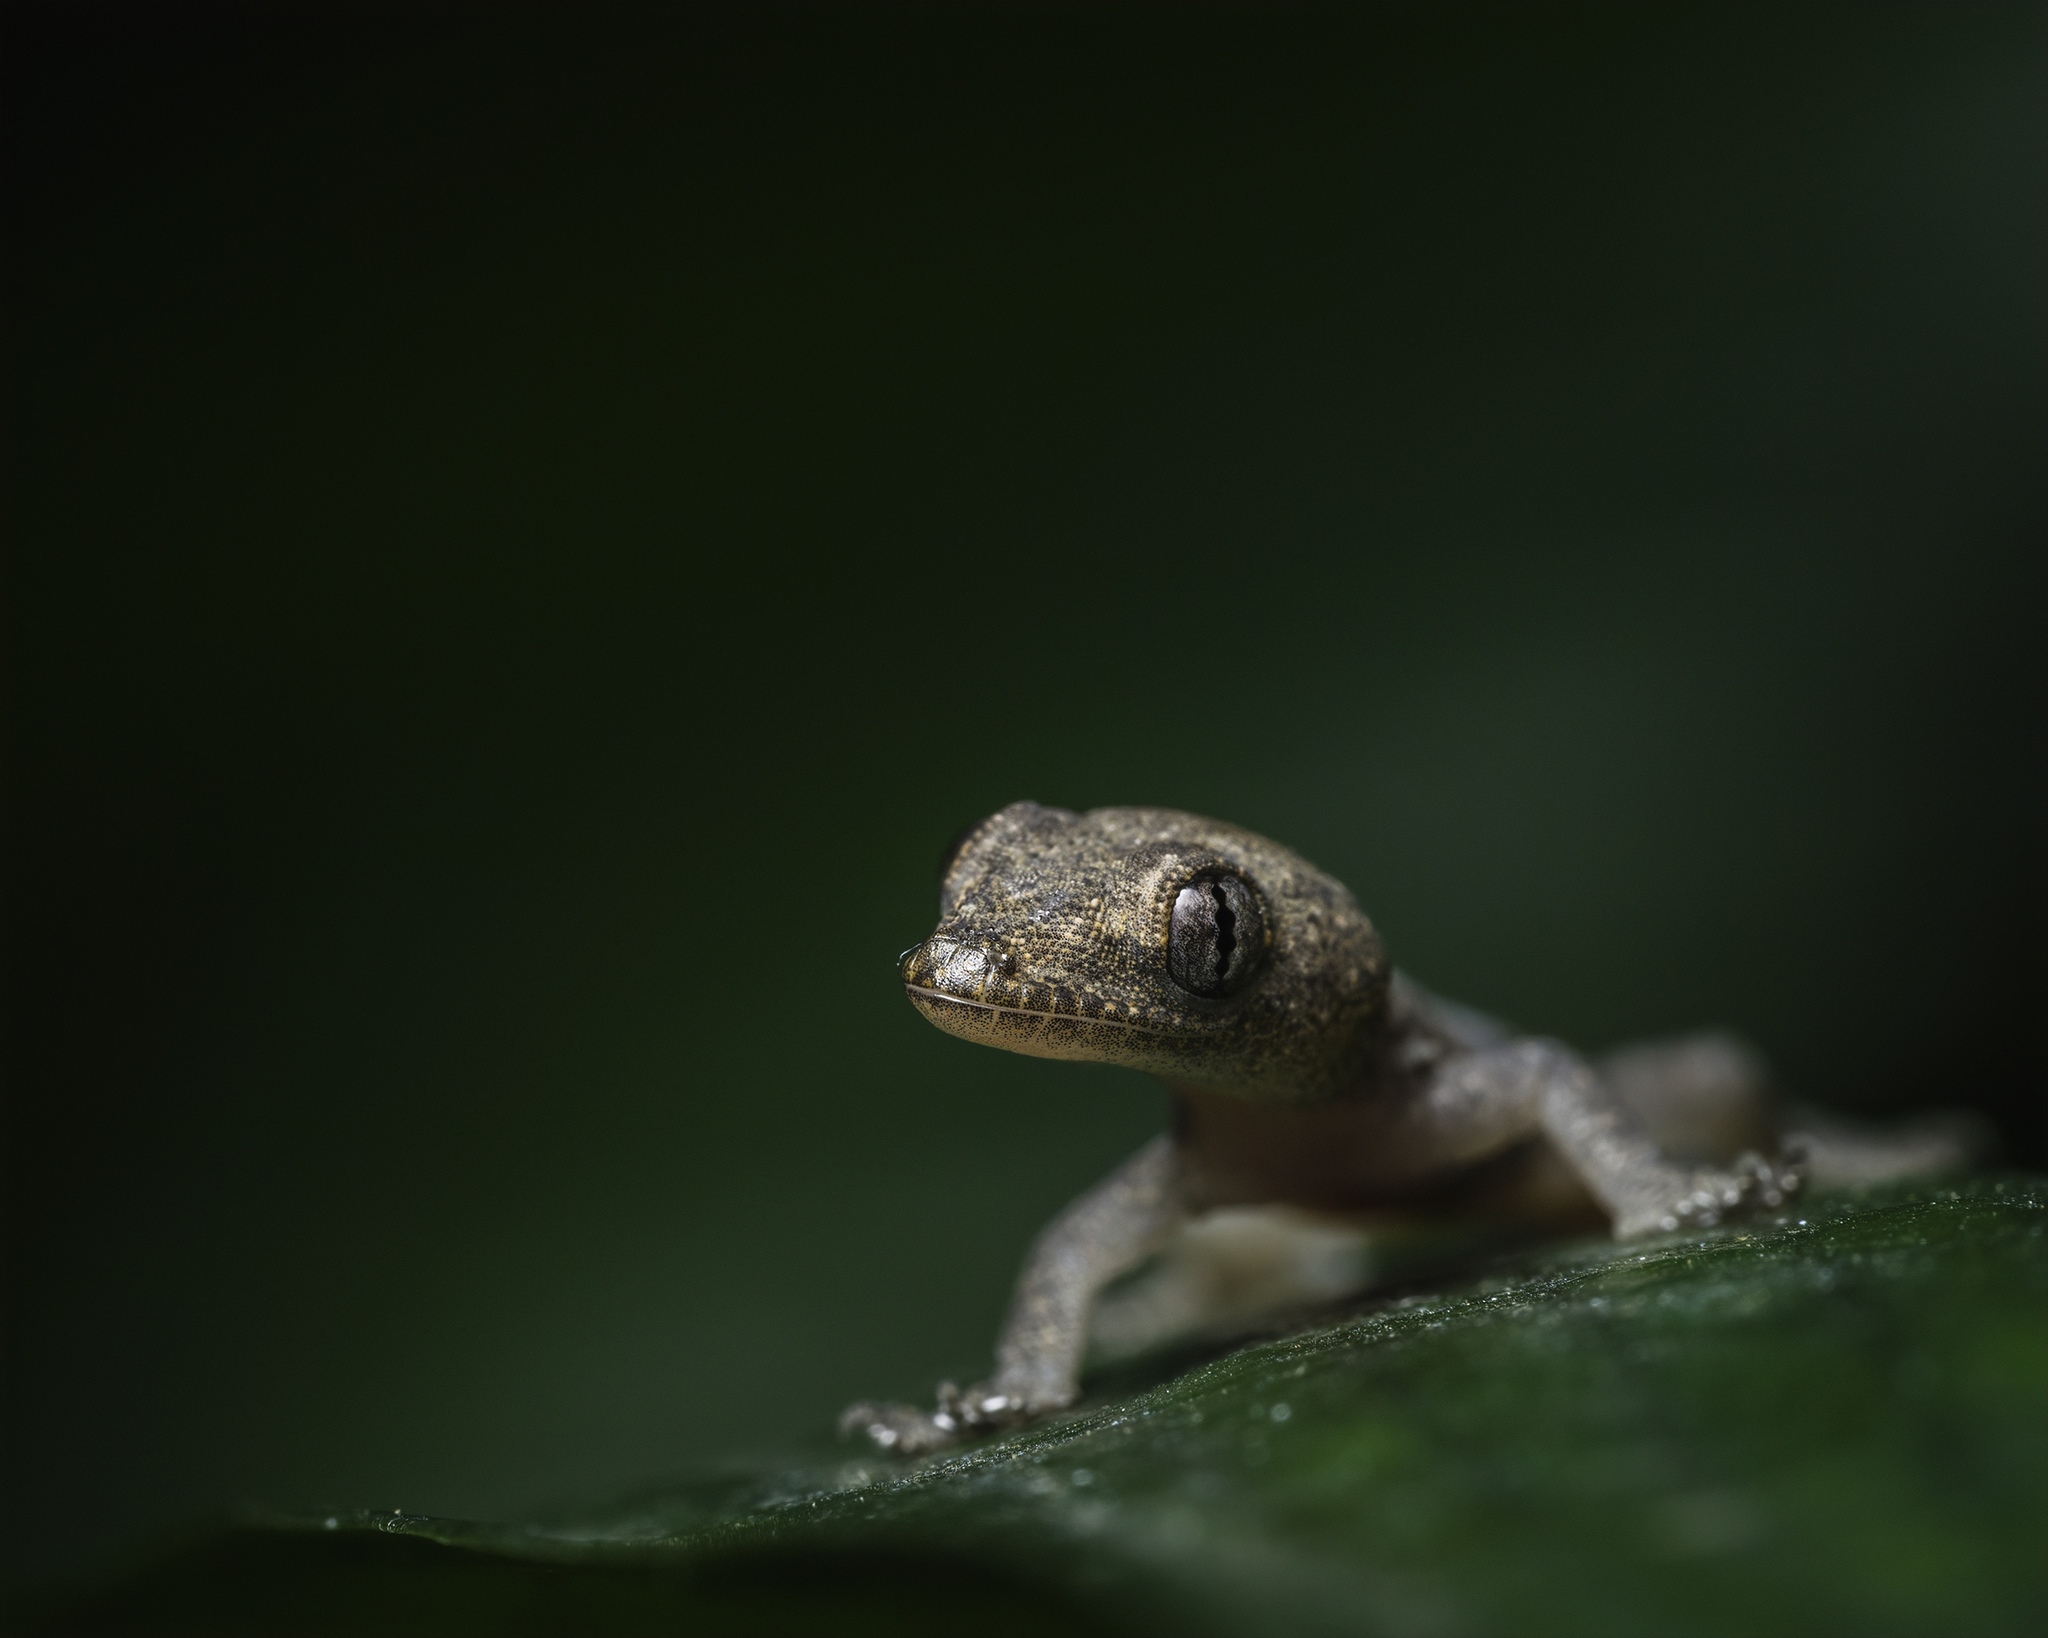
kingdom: Animalia
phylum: Chordata
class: Squamata
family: Gekkonidae
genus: Hemidactylus
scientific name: Hemidactylus frenatus
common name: Common house gecko
